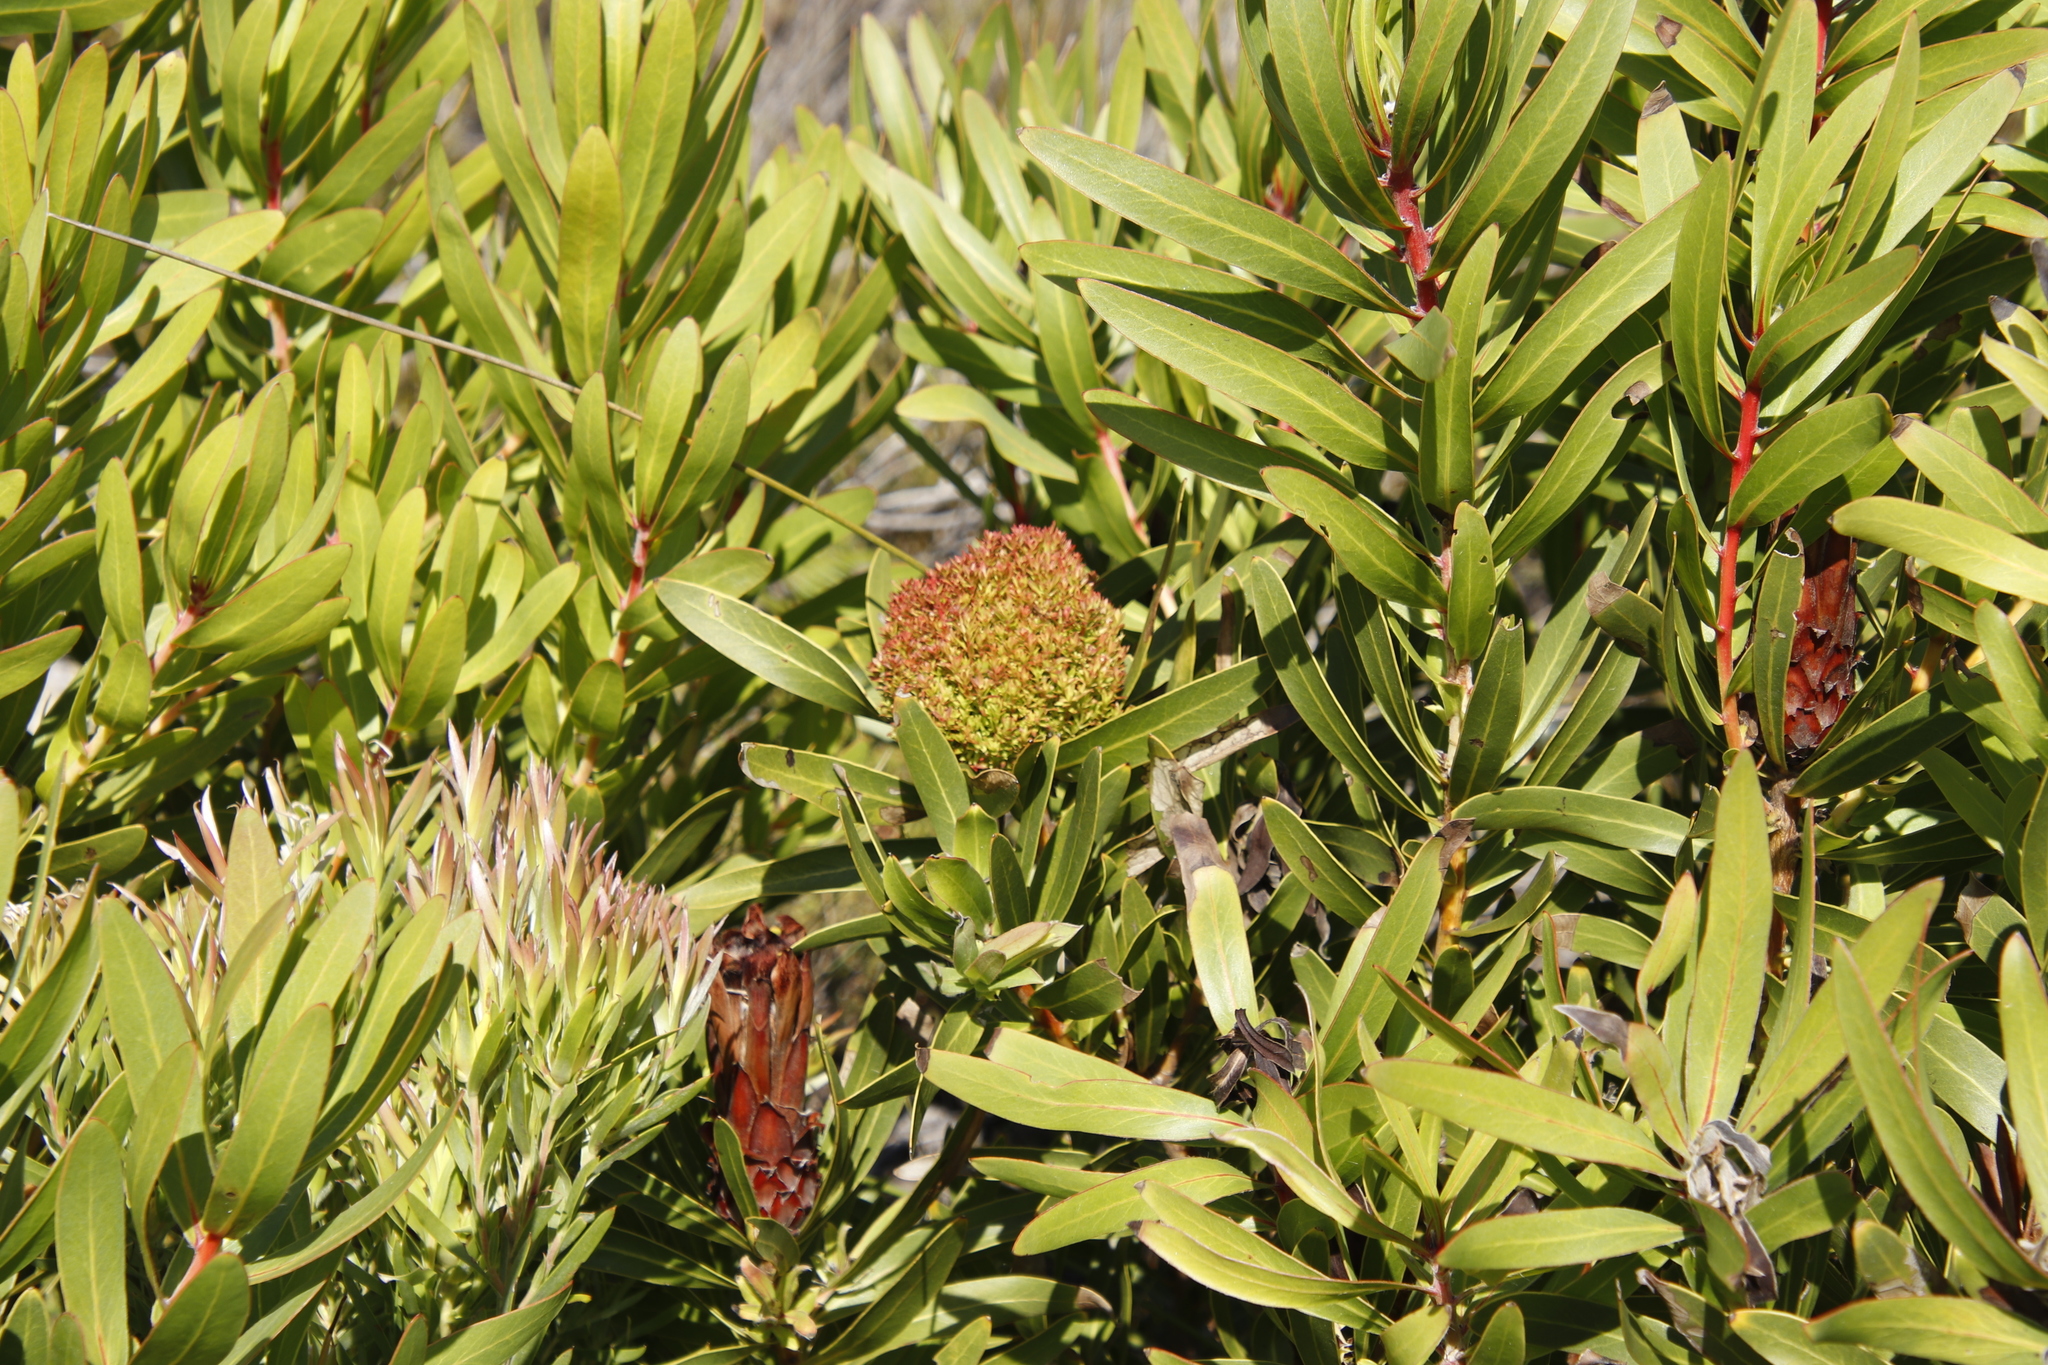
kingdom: Plantae
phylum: Tracheophyta
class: Magnoliopsida
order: Proteales
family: Proteaceae
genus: Protea
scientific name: Protea lepidocarpodendron
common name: Black-bearded protea
